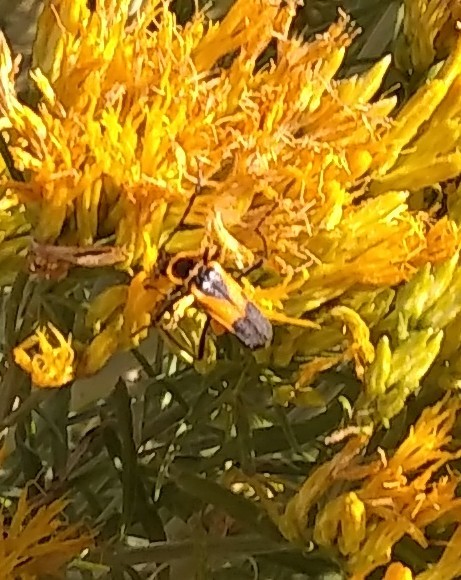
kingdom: Animalia
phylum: Arthropoda
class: Insecta
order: Coleoptera
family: Cantharidae
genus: Chauliognathus
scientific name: Chauliognathus basalis
